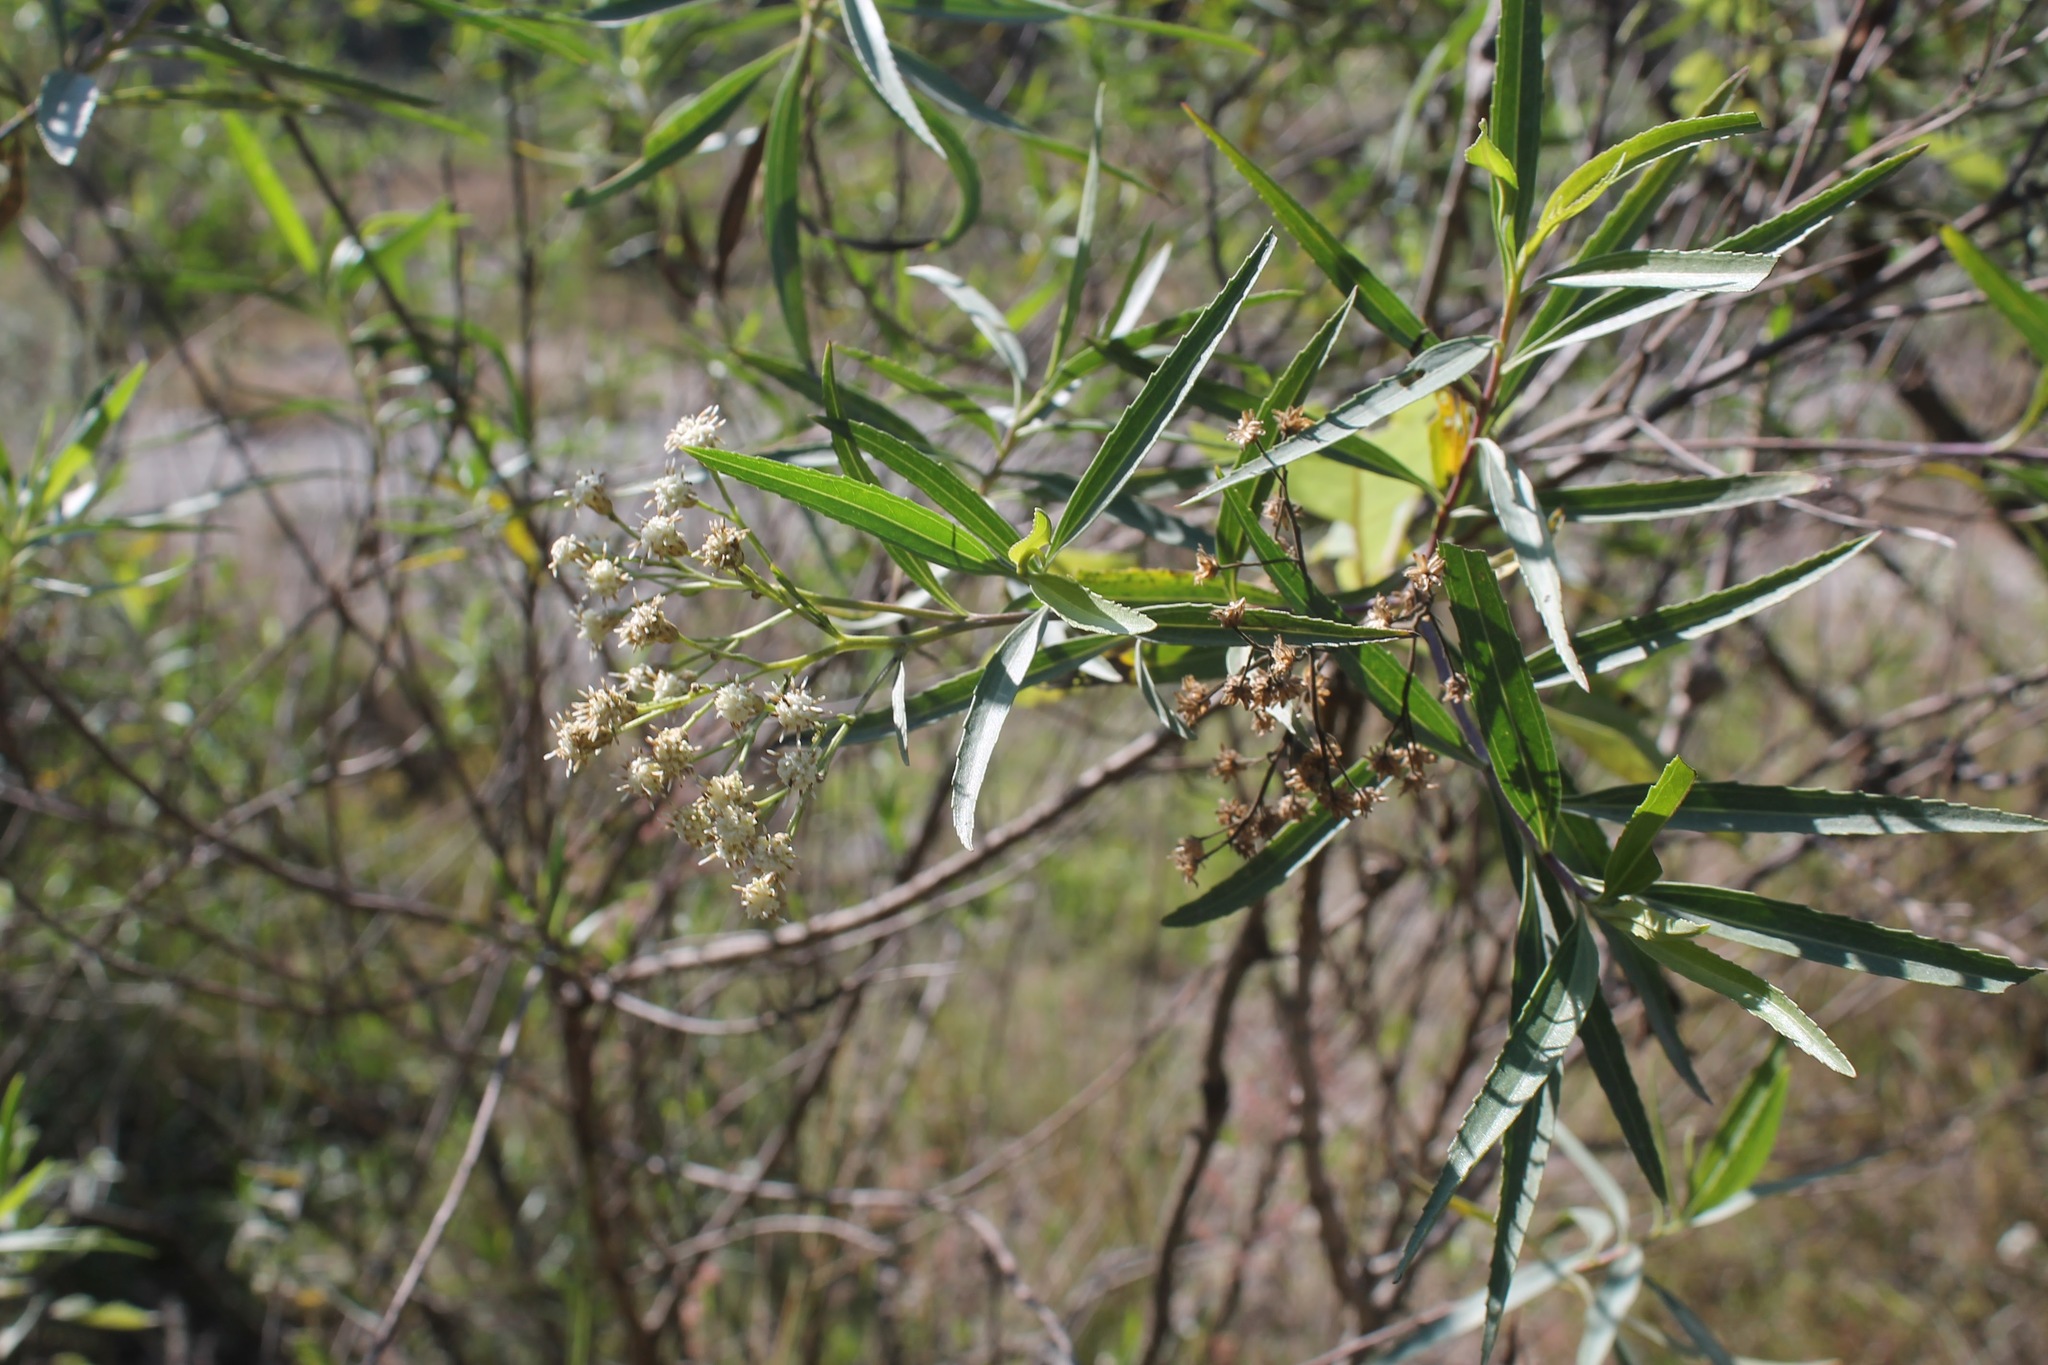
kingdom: Plantae
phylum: Tracheophyta
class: Magnoliopsida
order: Asterales
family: Asteraceae
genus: Baccharis
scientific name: Baccharis salicifolia
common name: Sticky baccharis
